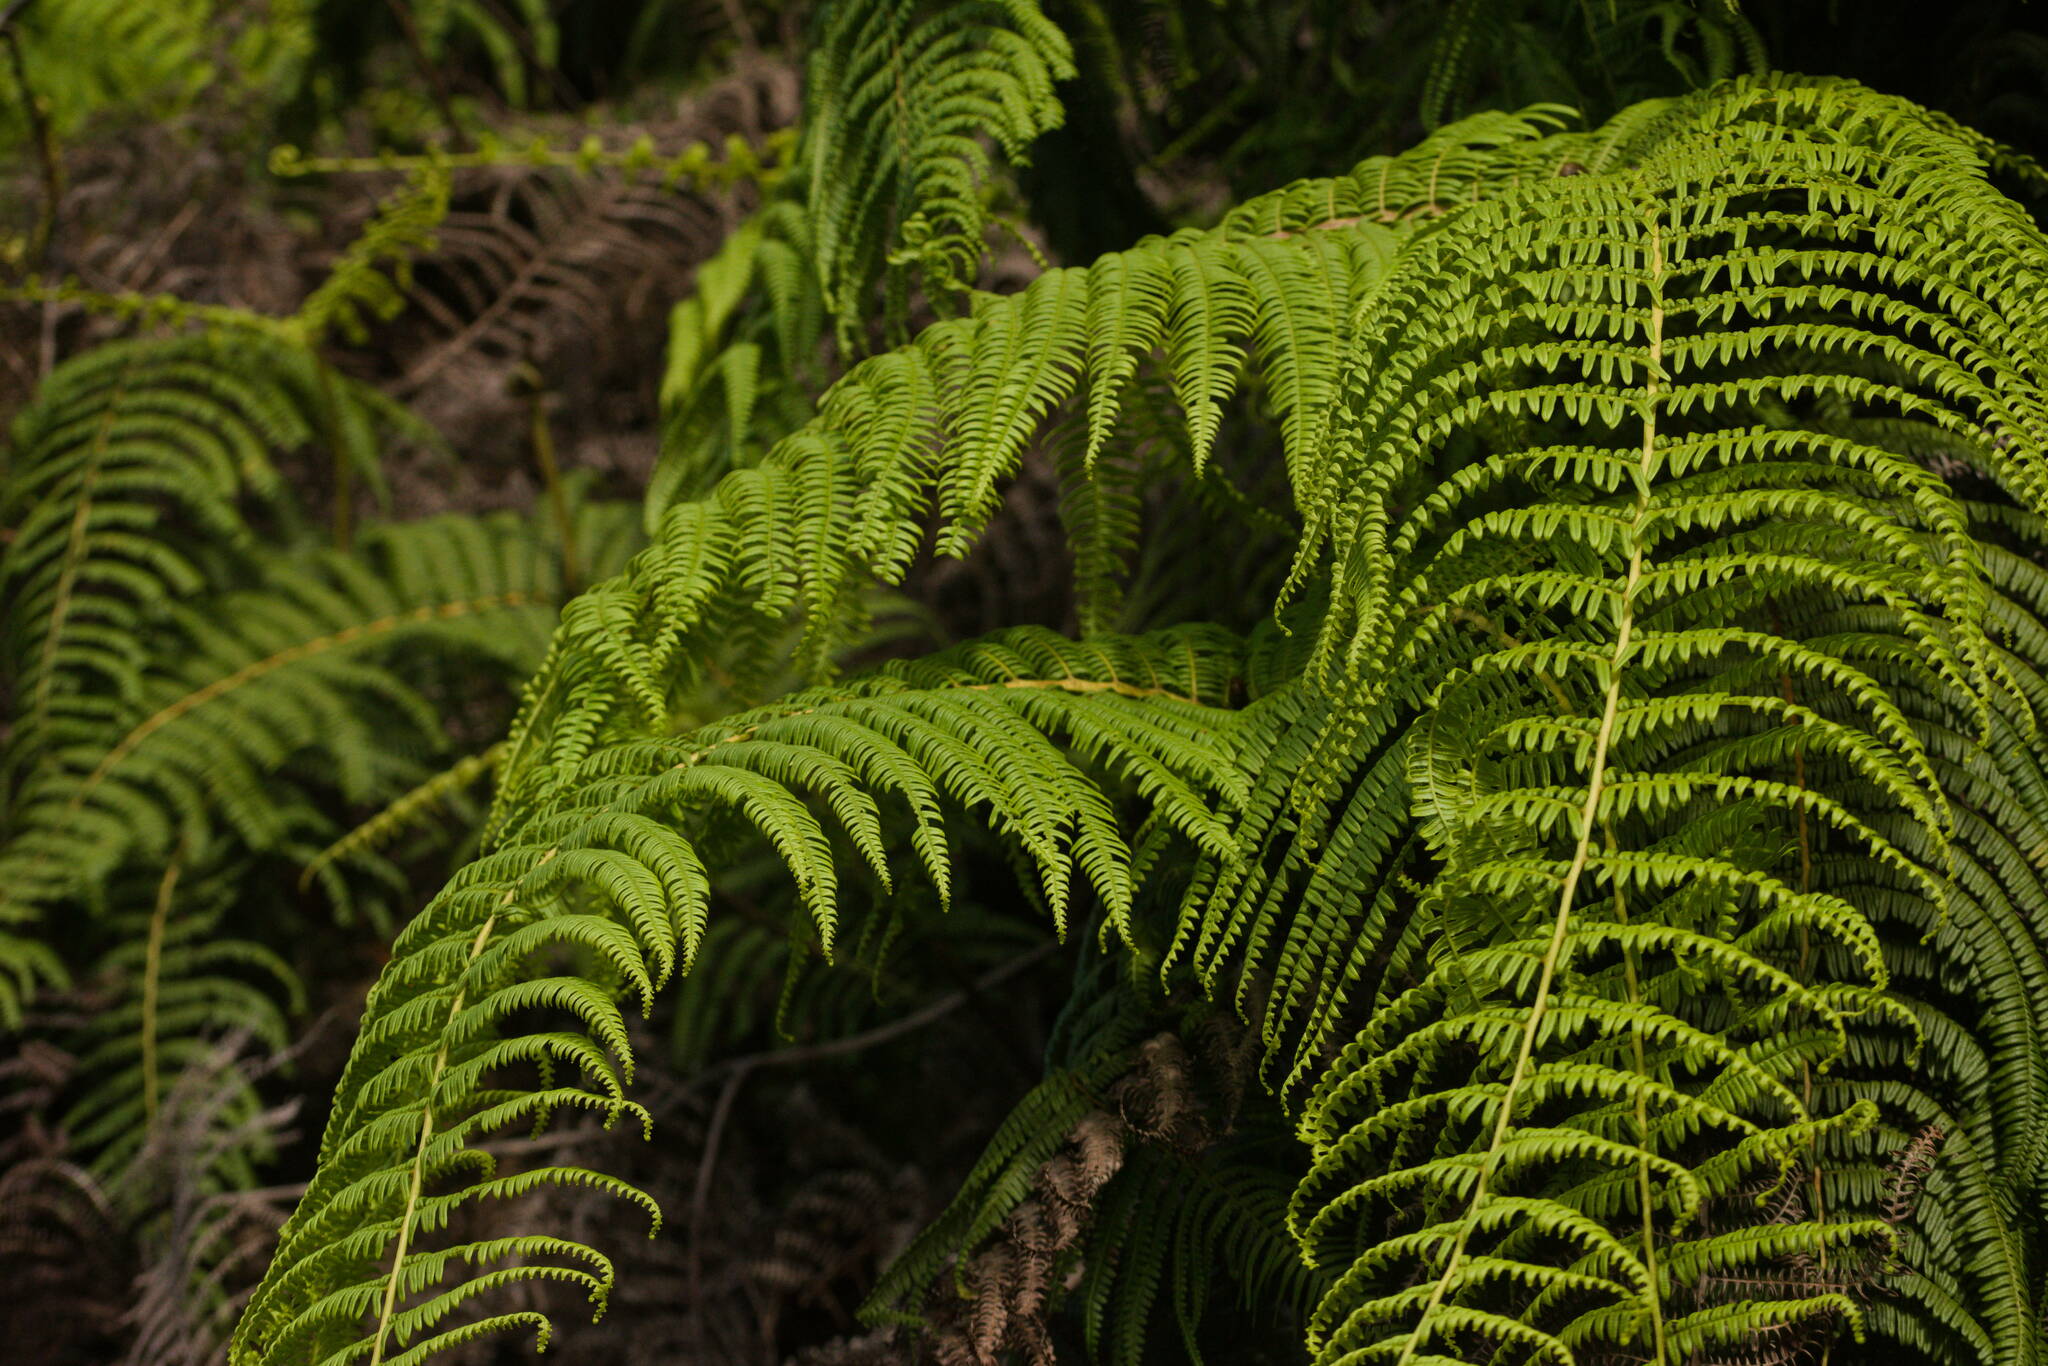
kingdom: Plantae
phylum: Tracheophyta
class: Polypodiopsida
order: Gleicheniales
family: Gleicheniaceae
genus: Diplopterygium
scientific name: Diplopterygium pinnatum
